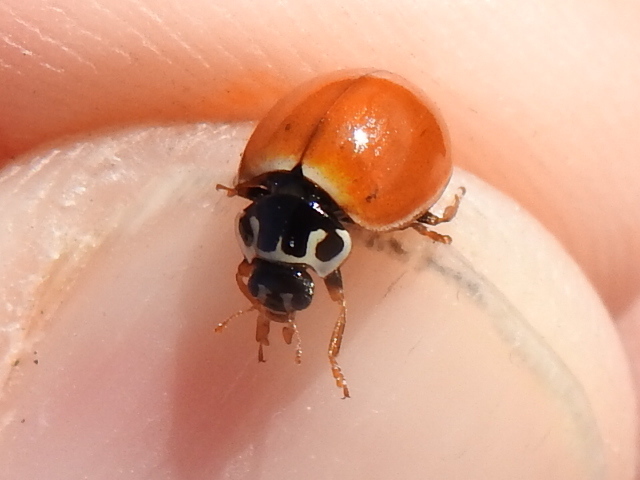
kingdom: Animalia
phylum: Arthropoda
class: Insecta
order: Coleoptera
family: Coccinellidae
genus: Cycloneda
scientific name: Cycloneda munda
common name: Polished lady beetle
